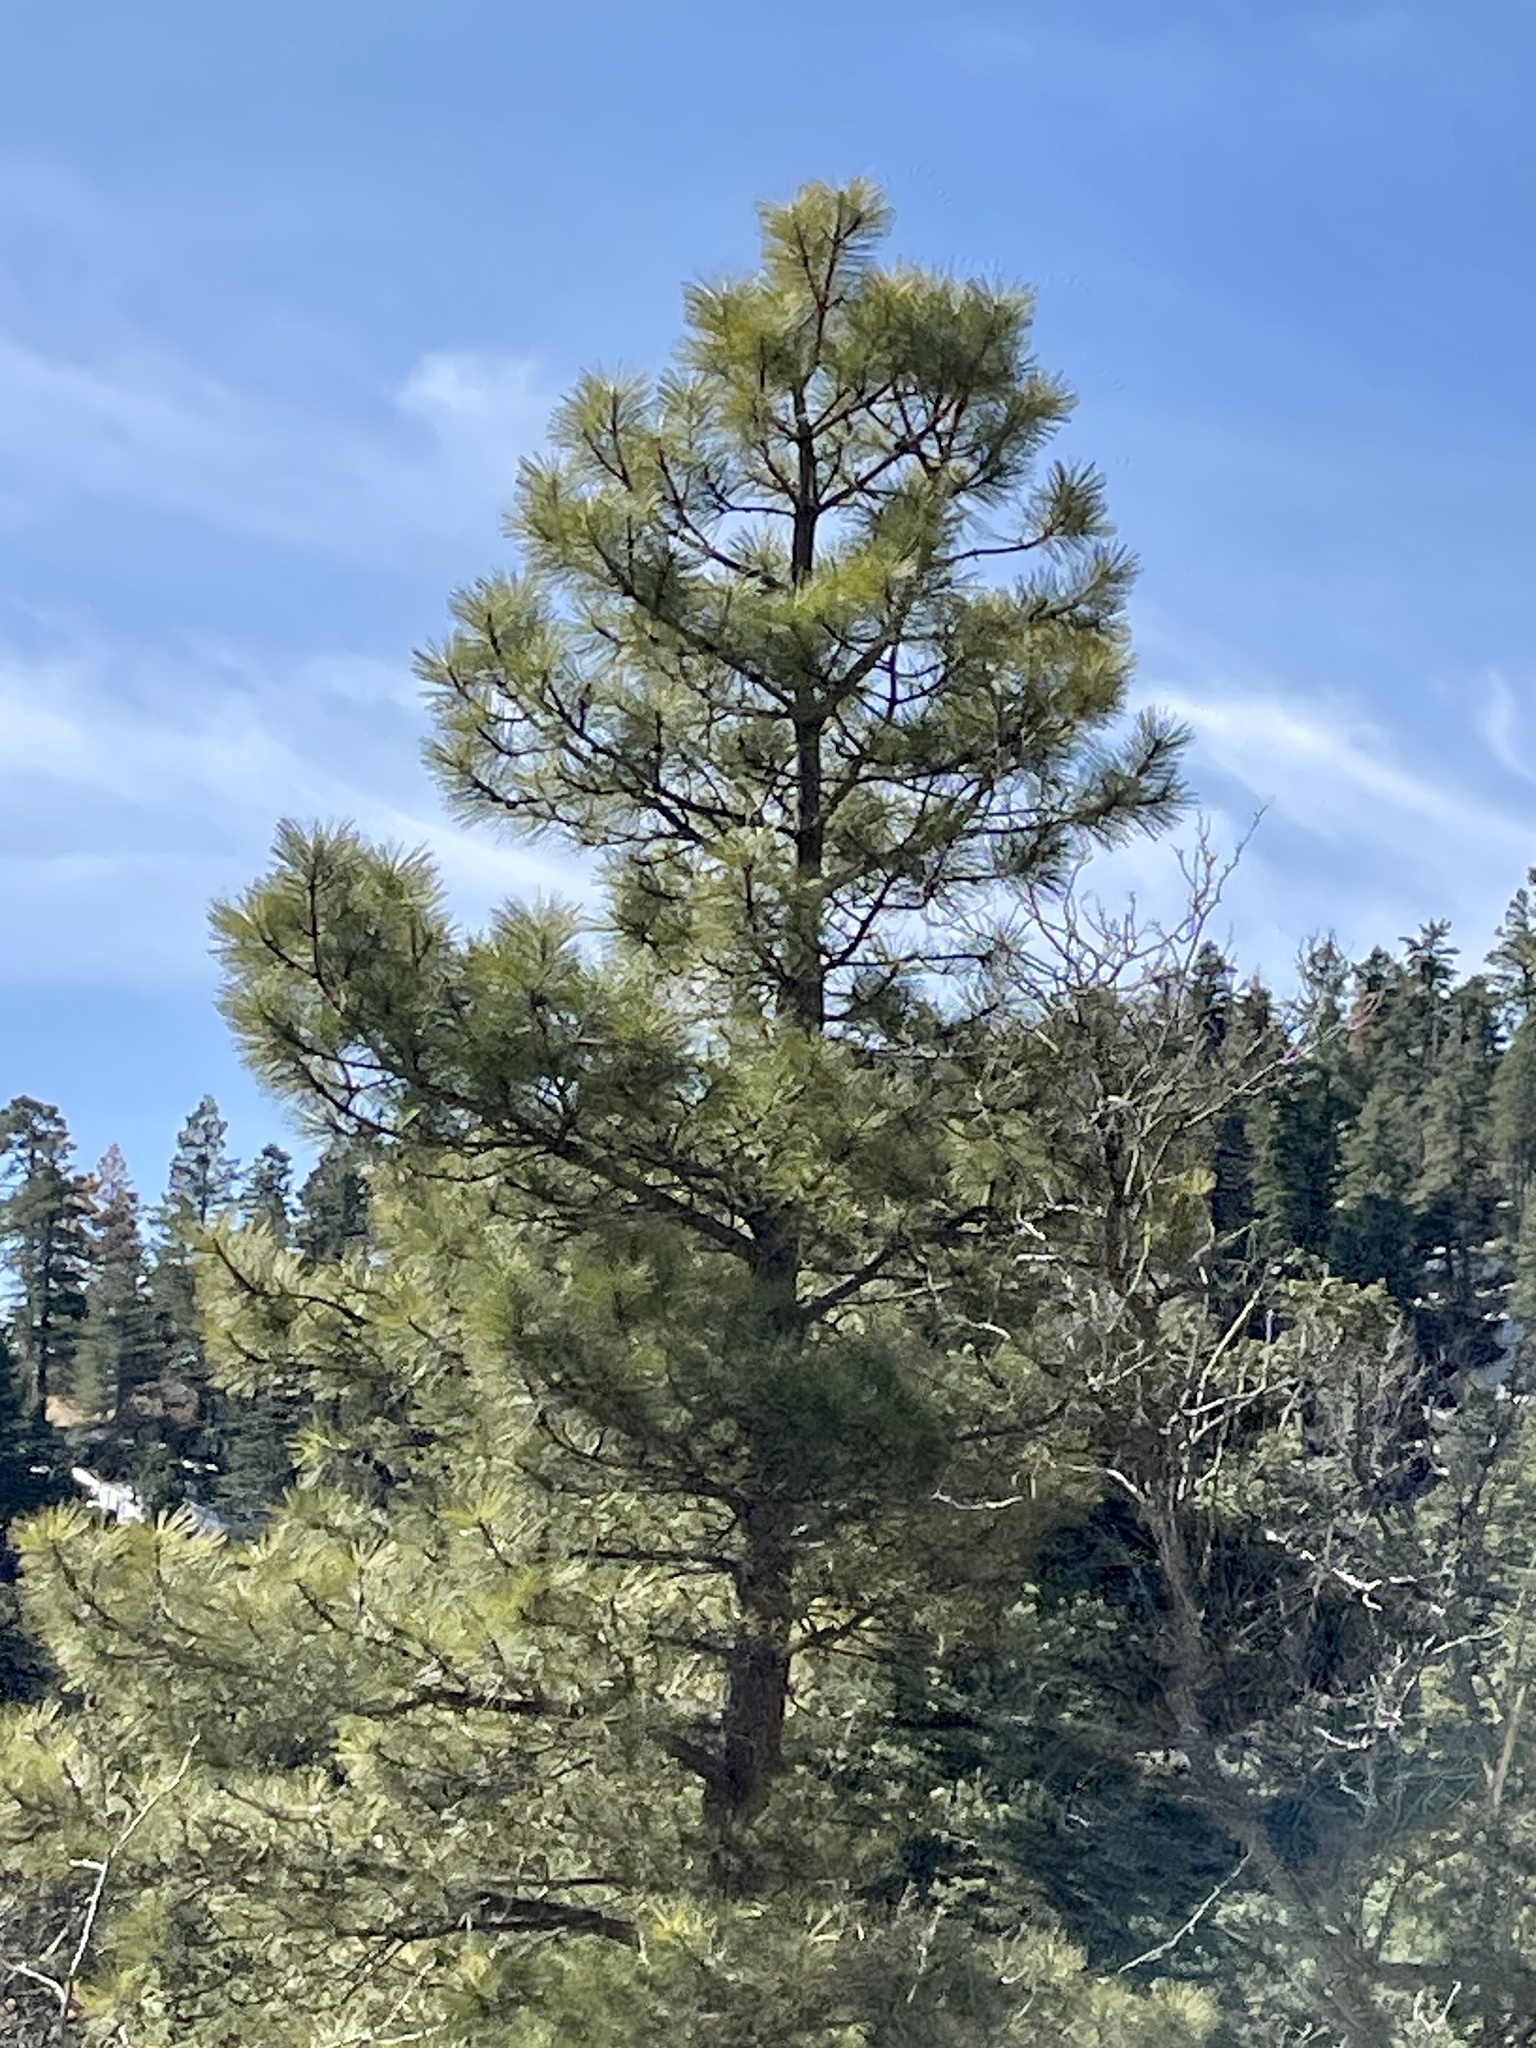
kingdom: Plantae
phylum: Tracheophyta
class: Pinopsida
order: Pinales
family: Pinaceae
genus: Pinus
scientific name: Pinus ponderosa
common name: Western yellow-pine
